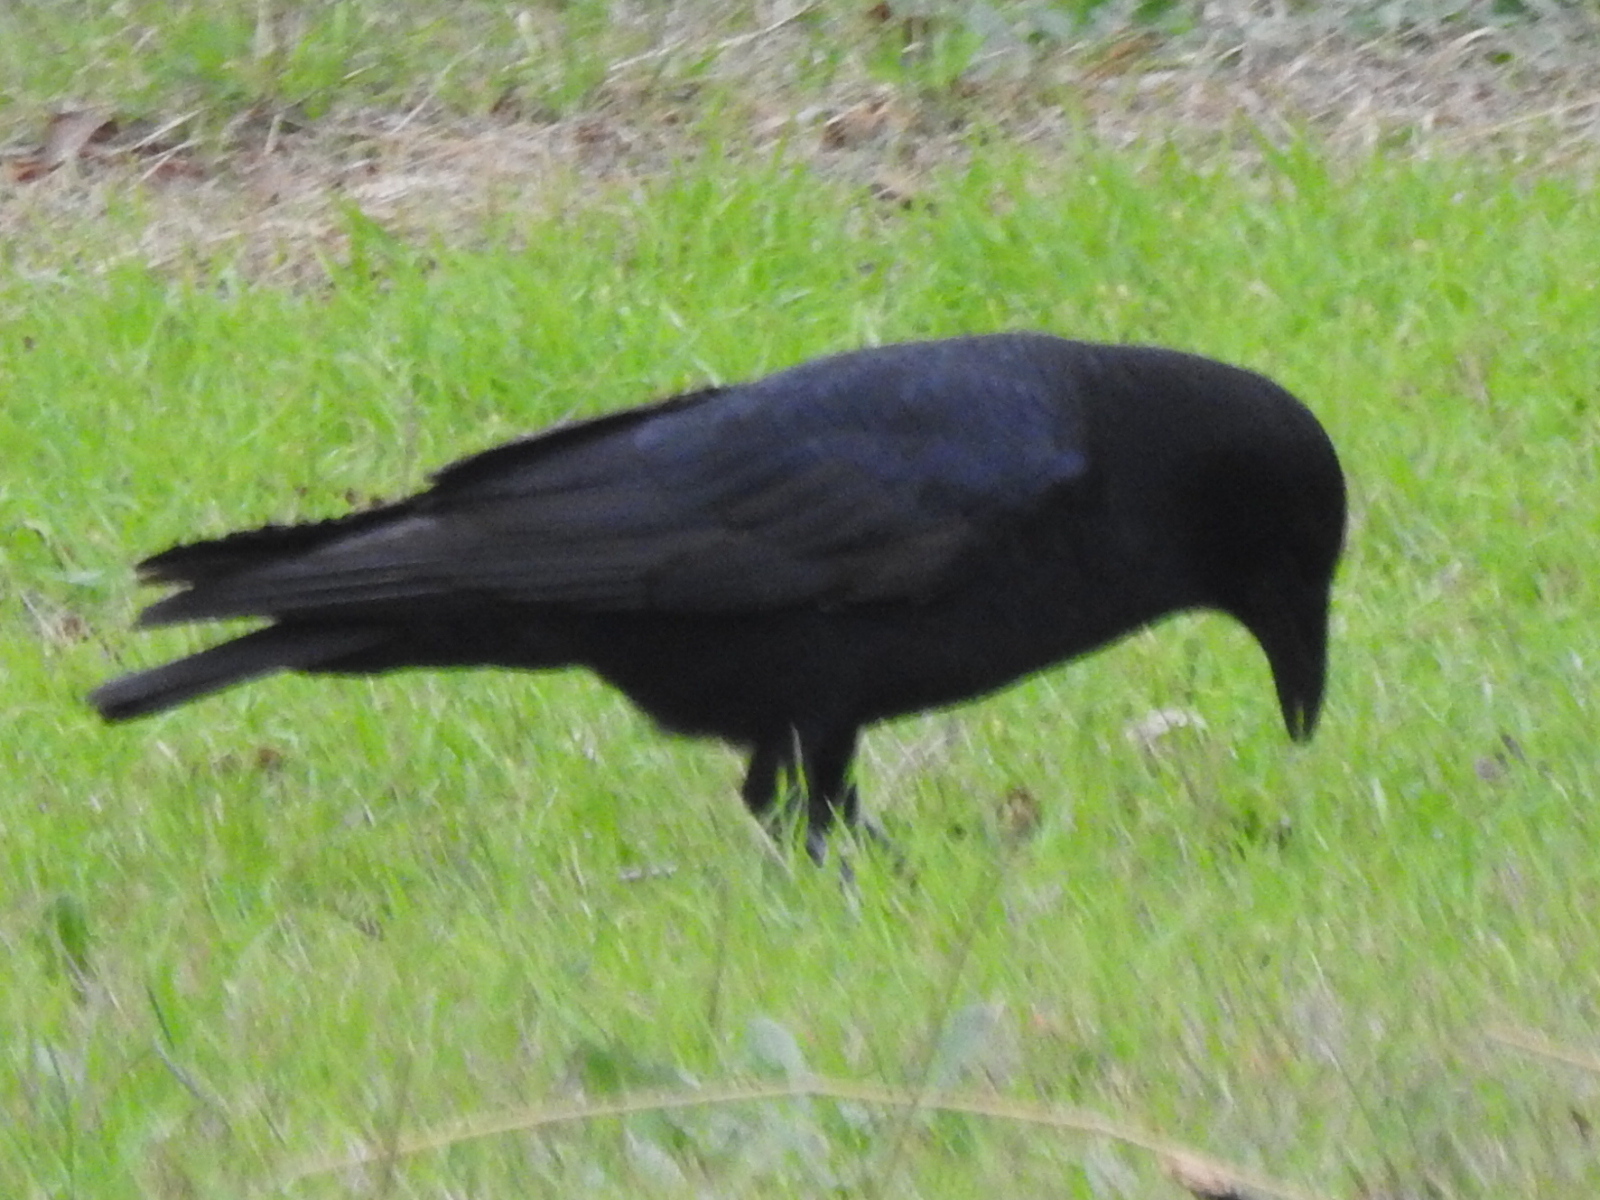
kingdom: Animalia
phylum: Chordata
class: Aves
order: Passeriformes
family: Corvidae
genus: Corvus
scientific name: Corvus brachyrhynchos
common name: American crow
